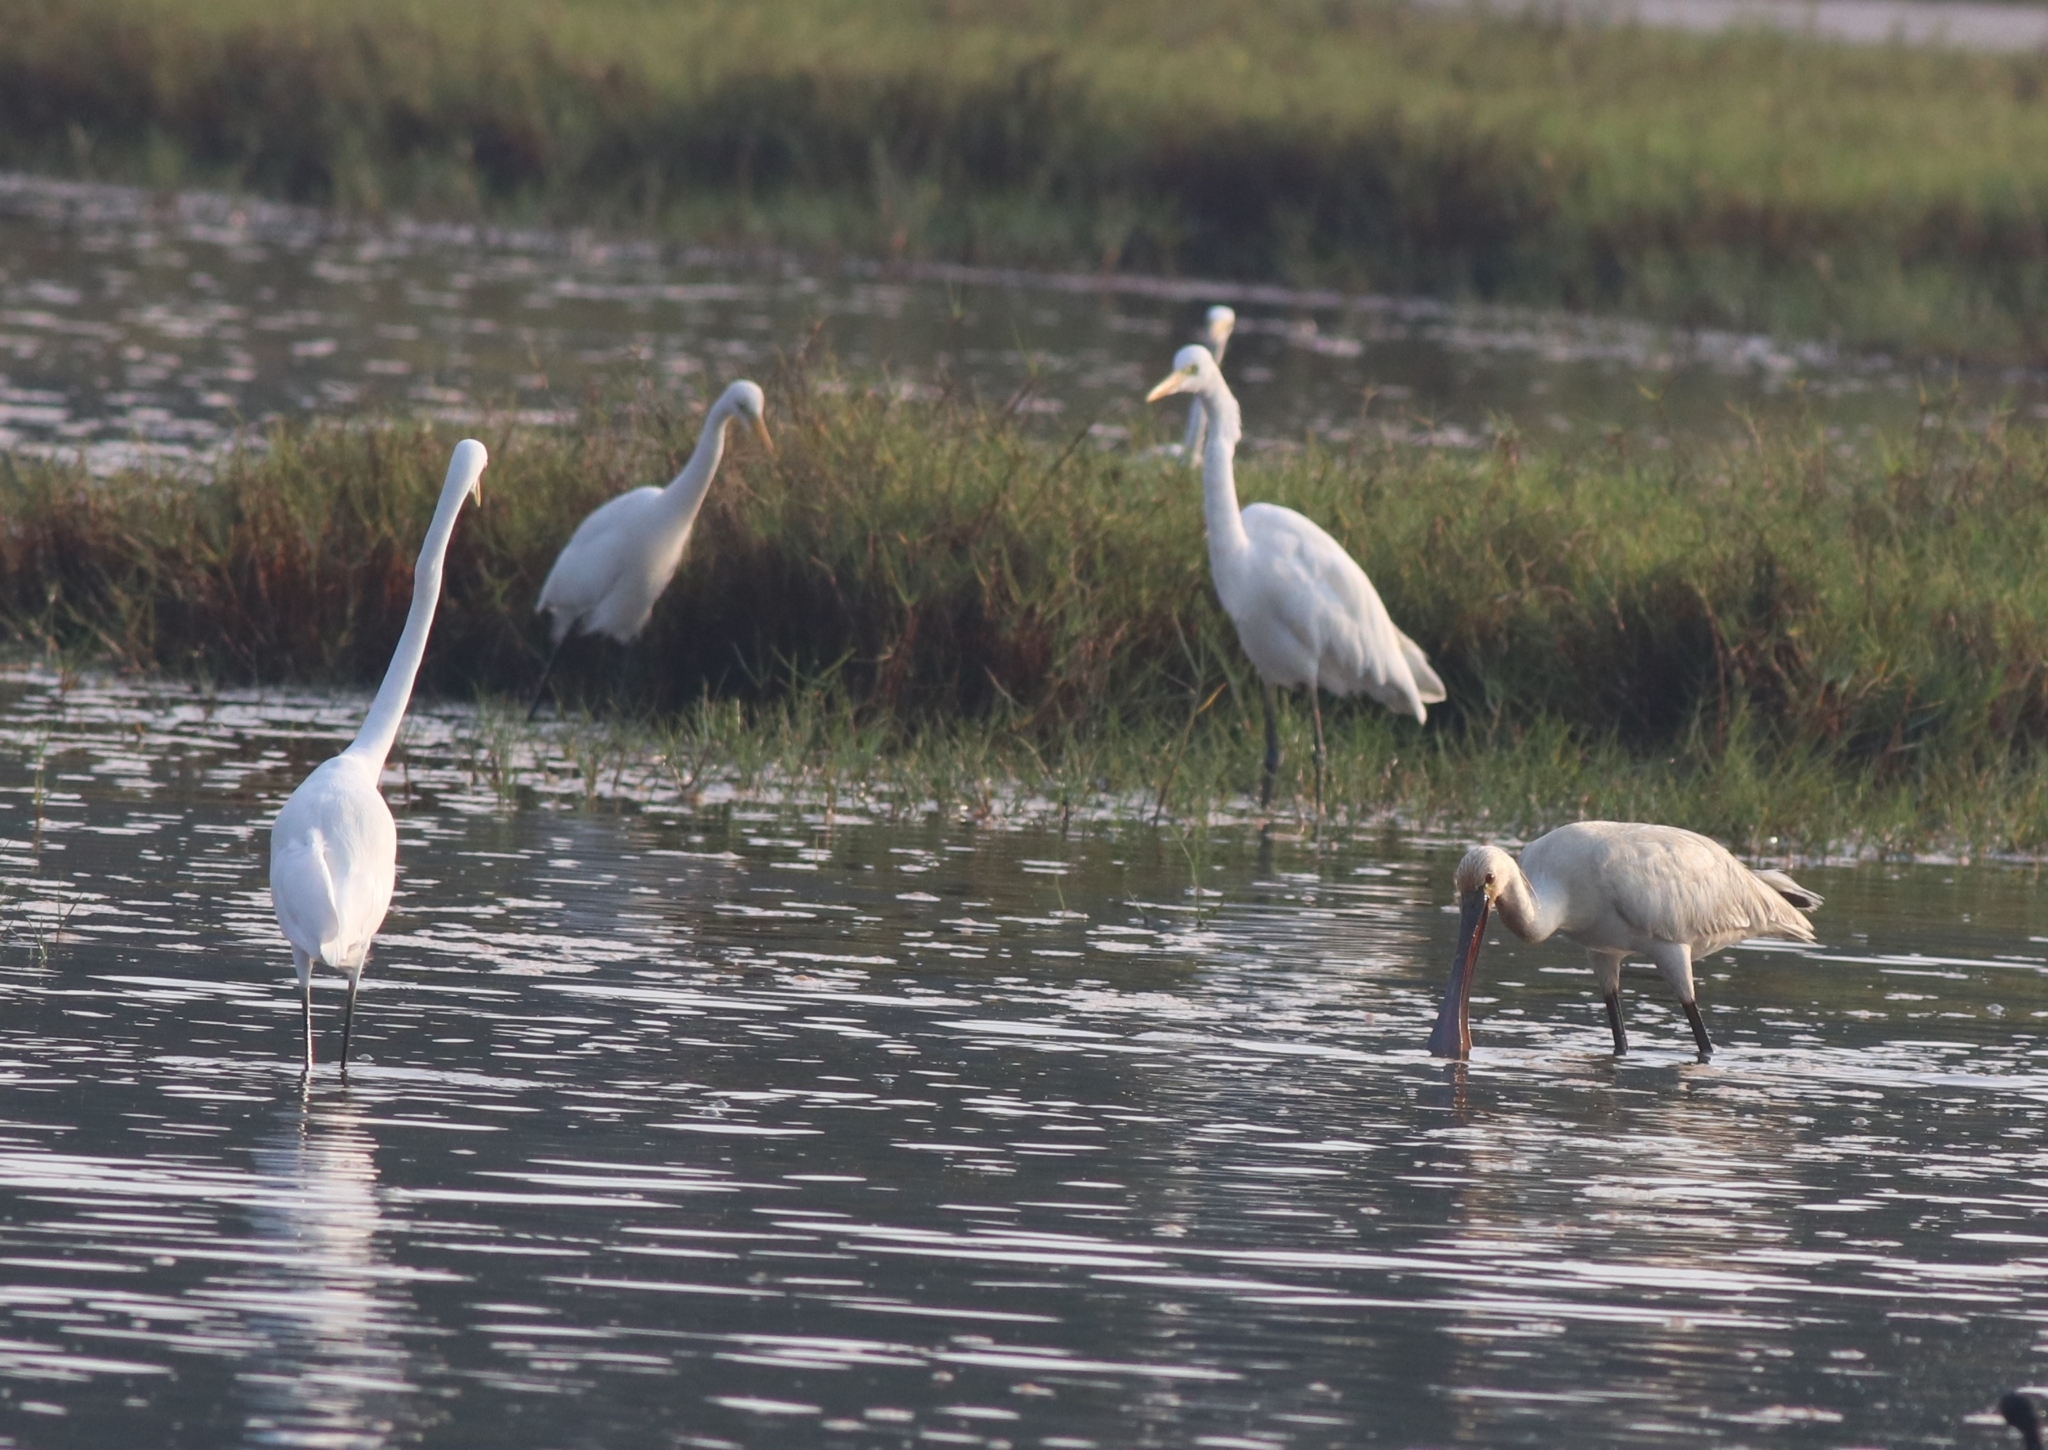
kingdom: Animalia
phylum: Chordata
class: Aves
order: Pelecaniformes
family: Ardeidae
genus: Ardea
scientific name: Ardea alba
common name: Great egret
